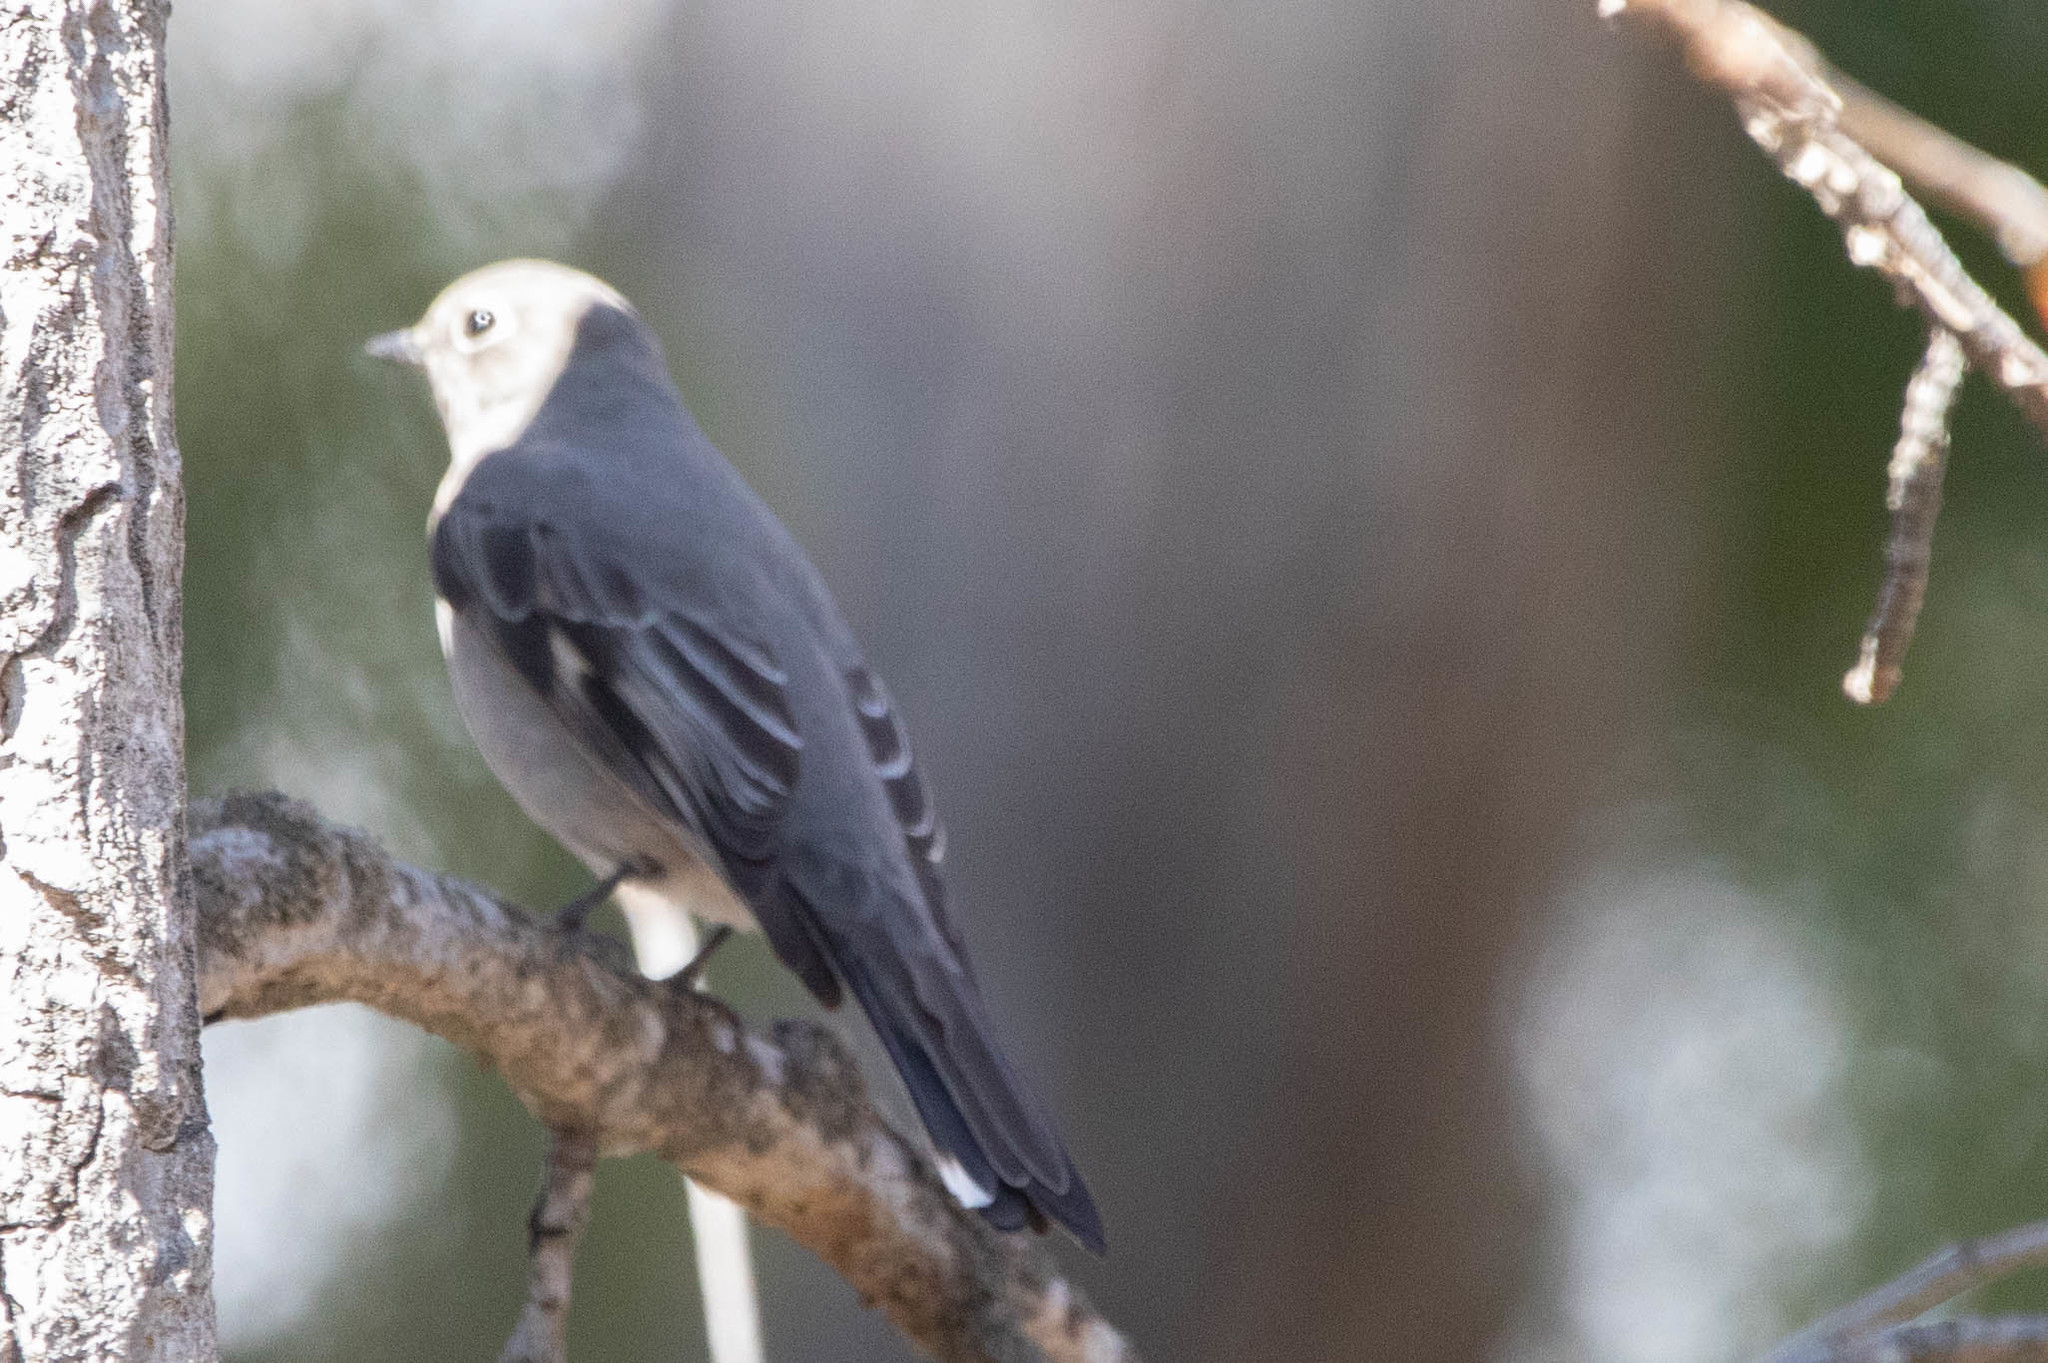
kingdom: Animalia
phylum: Chordata
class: Aves
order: Passeriformes
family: Turdidae
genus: Myadestes
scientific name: Myadestes townsendi
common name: Townsend's solitaire
